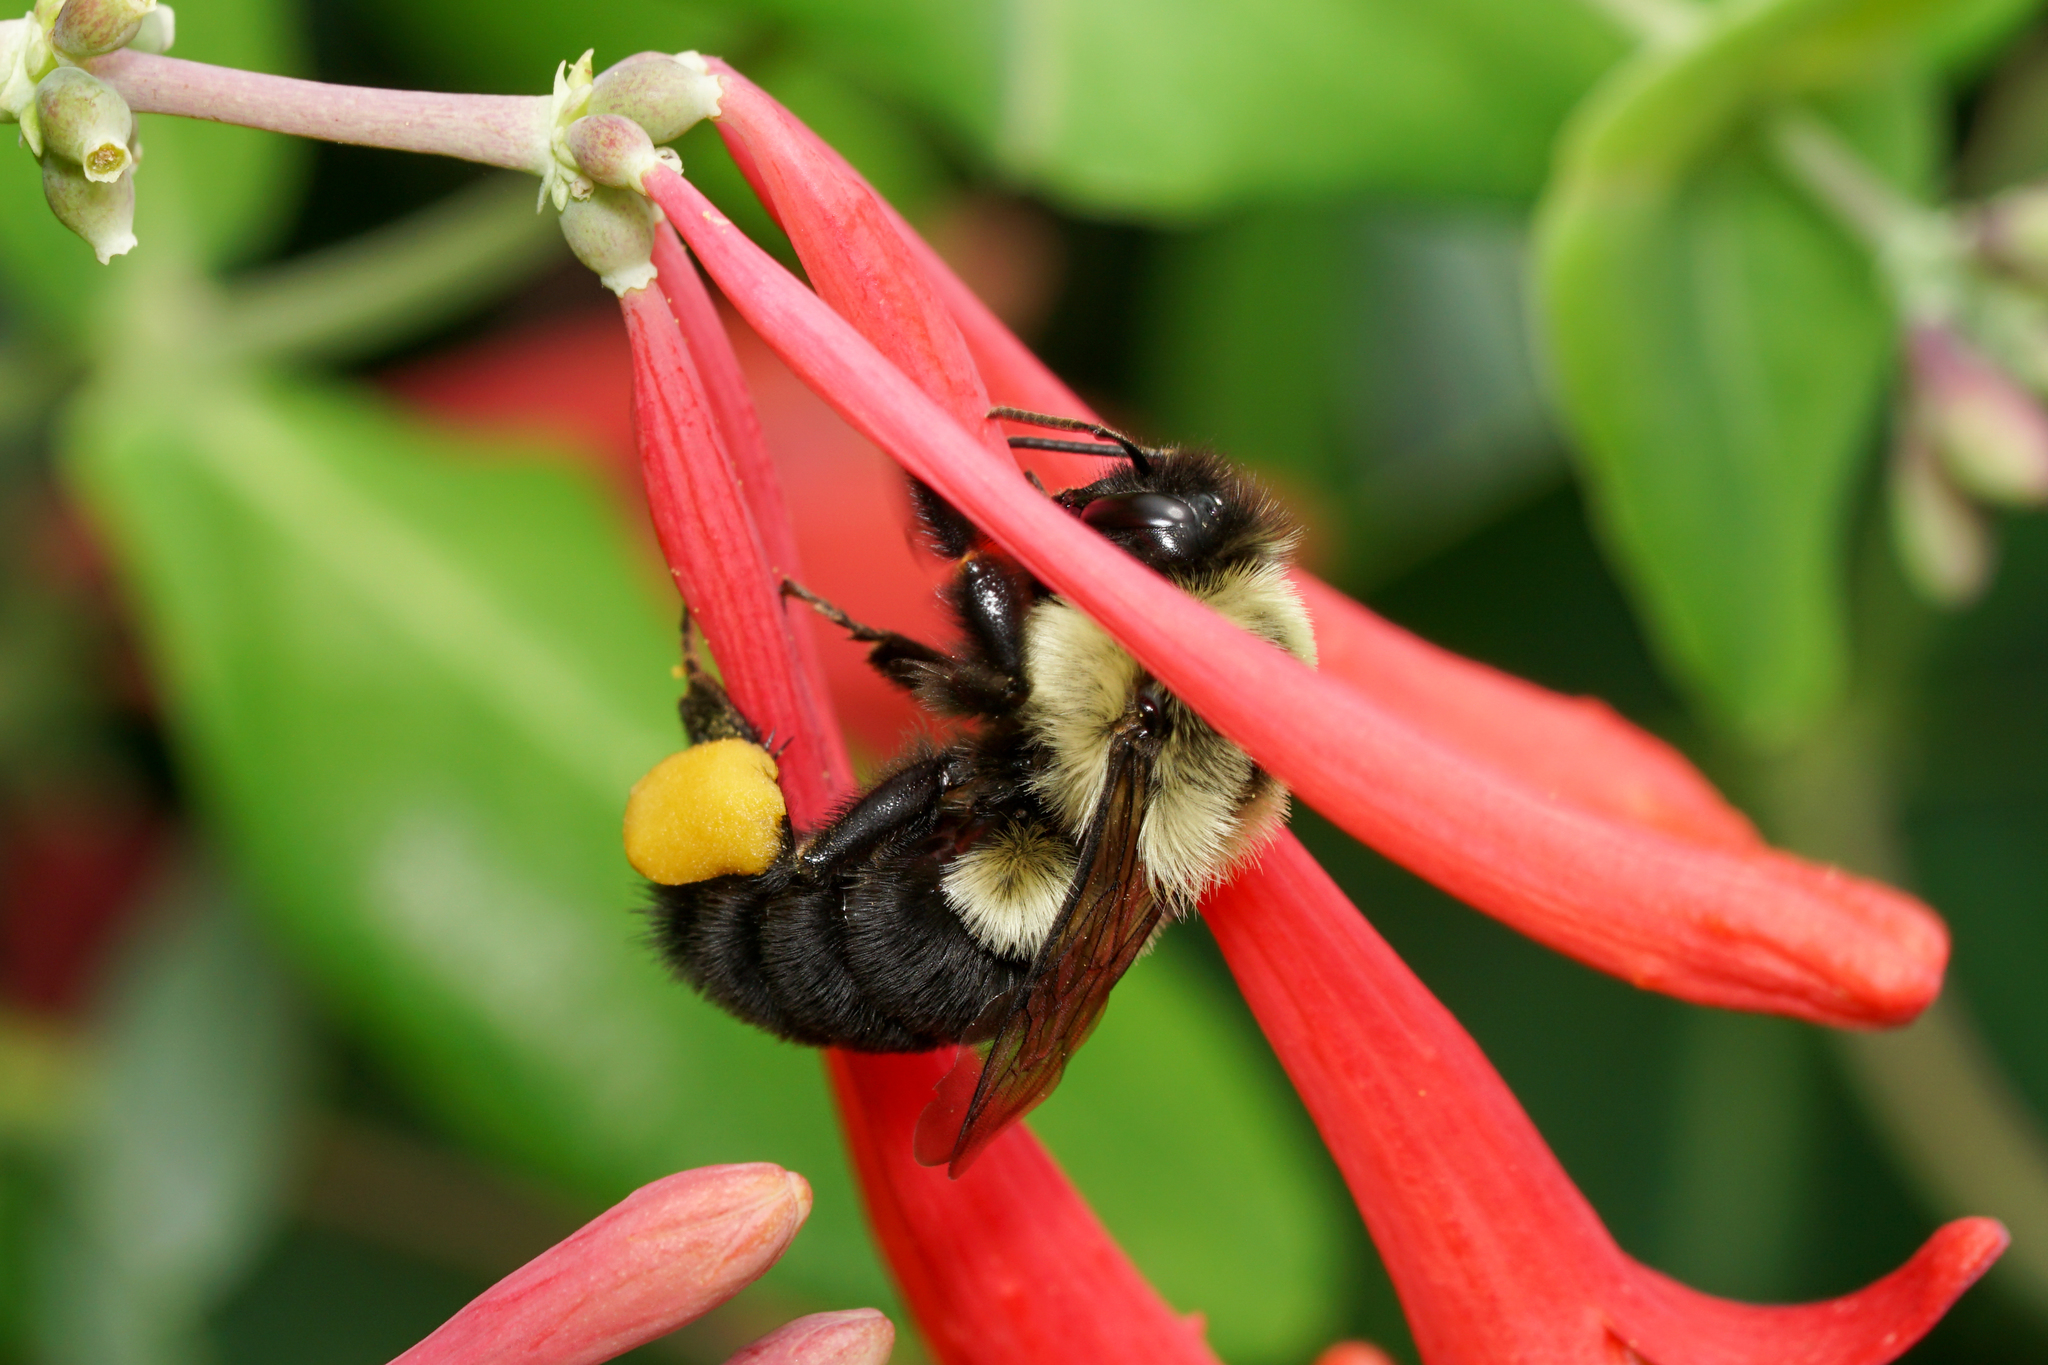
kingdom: Animalia
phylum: Arthropoda
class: Insecta
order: Hymenoptera
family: Apidae
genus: Bombus
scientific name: Bombus impatiens
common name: Common eastern bumble bee
